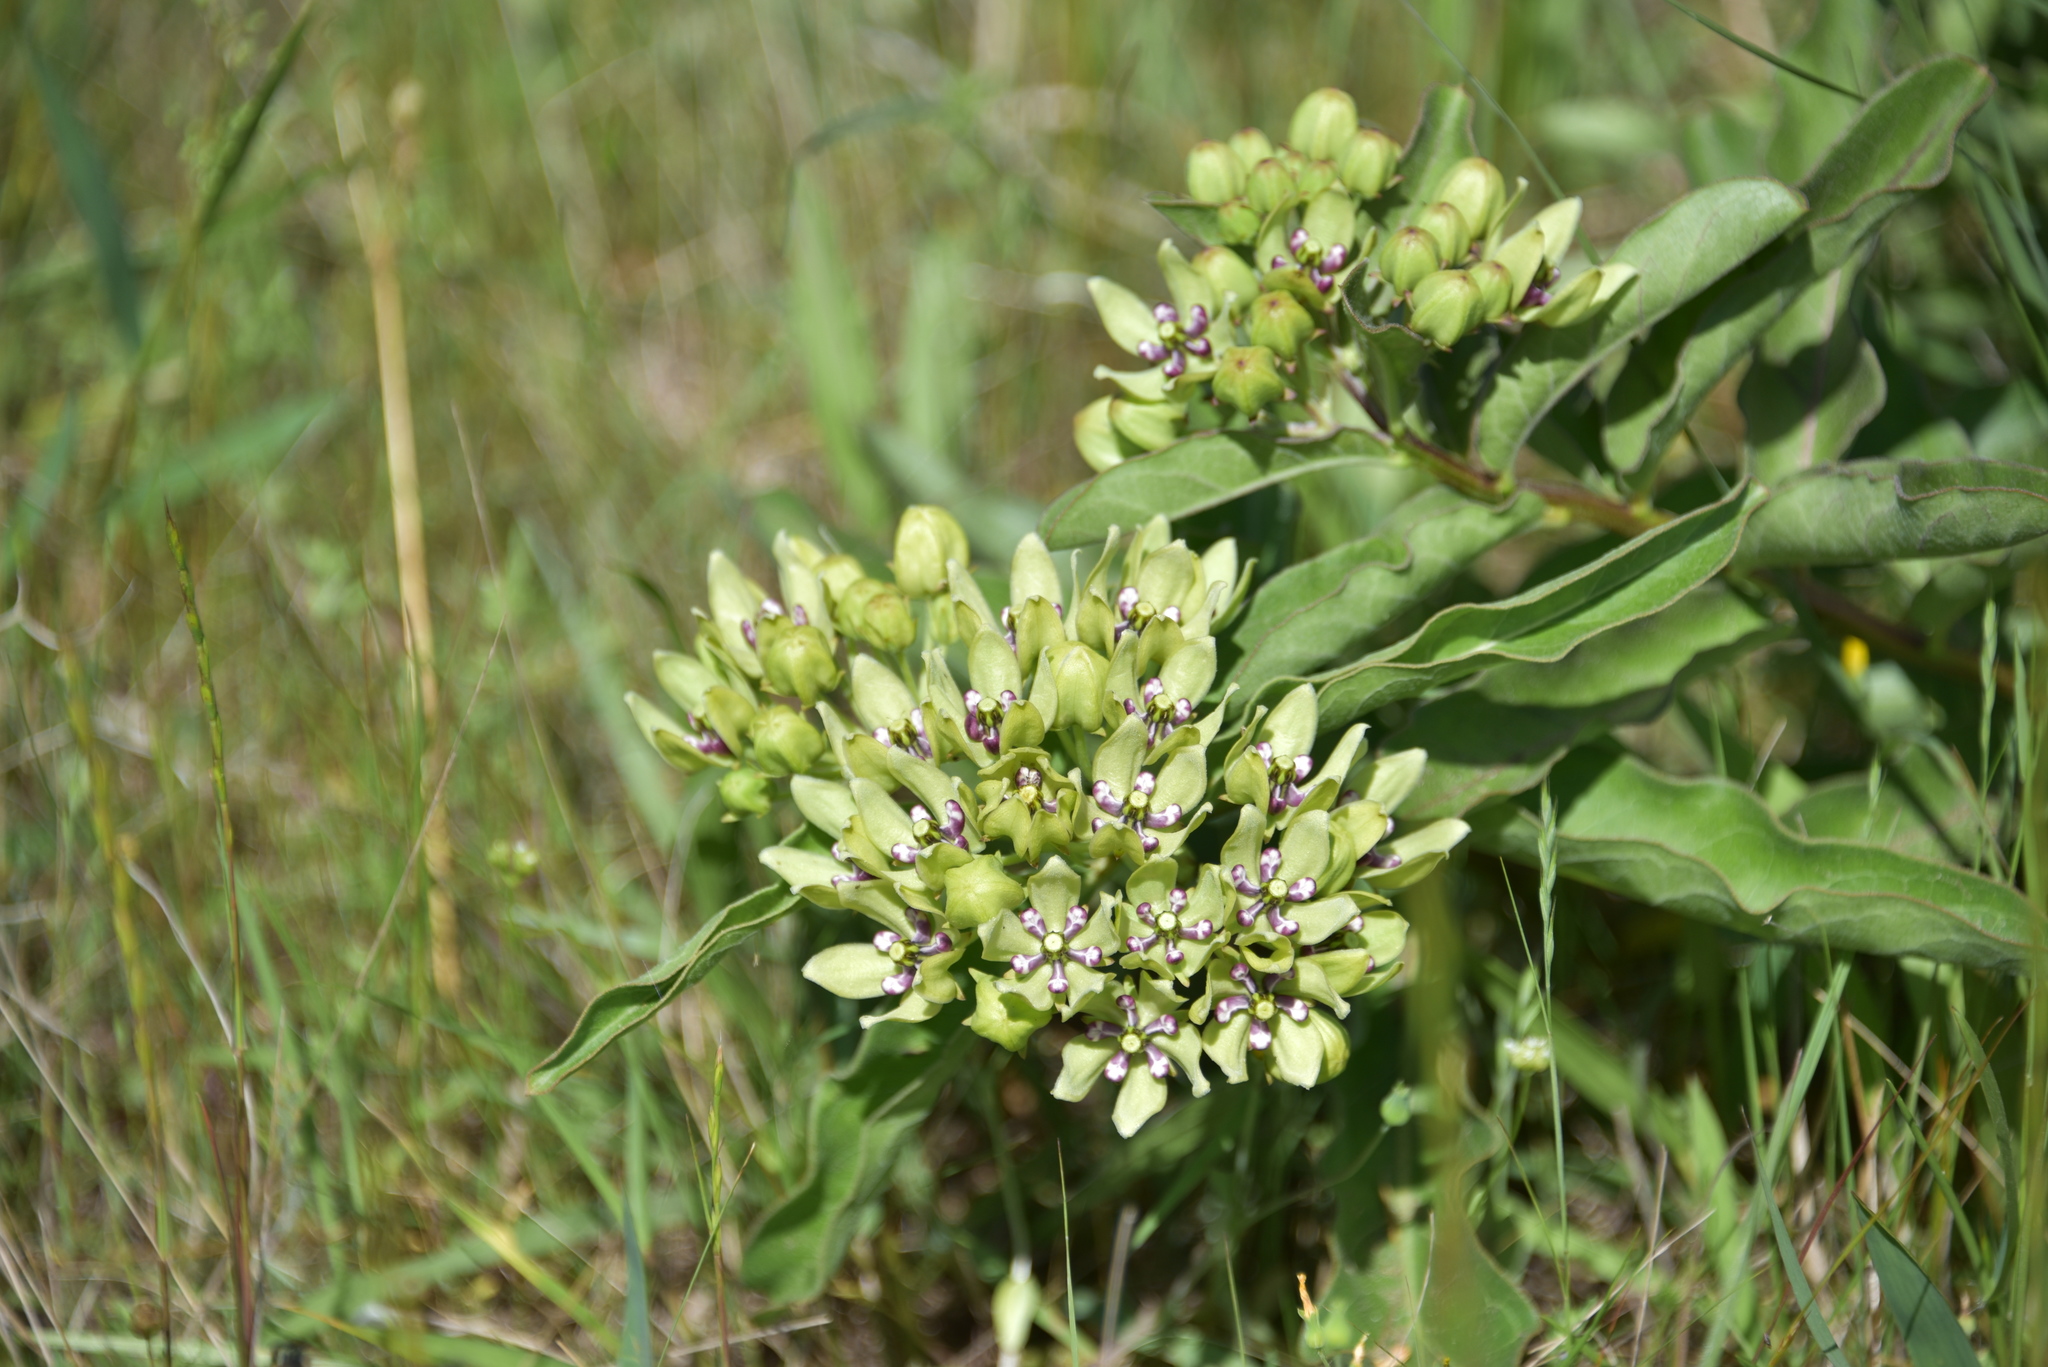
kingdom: Plantae
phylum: Tracheophyta
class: Magnoliopsida
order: Gentianales
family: Apocynaceae
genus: Asclepias
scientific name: Asclepias viridis
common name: Antelope-horns
